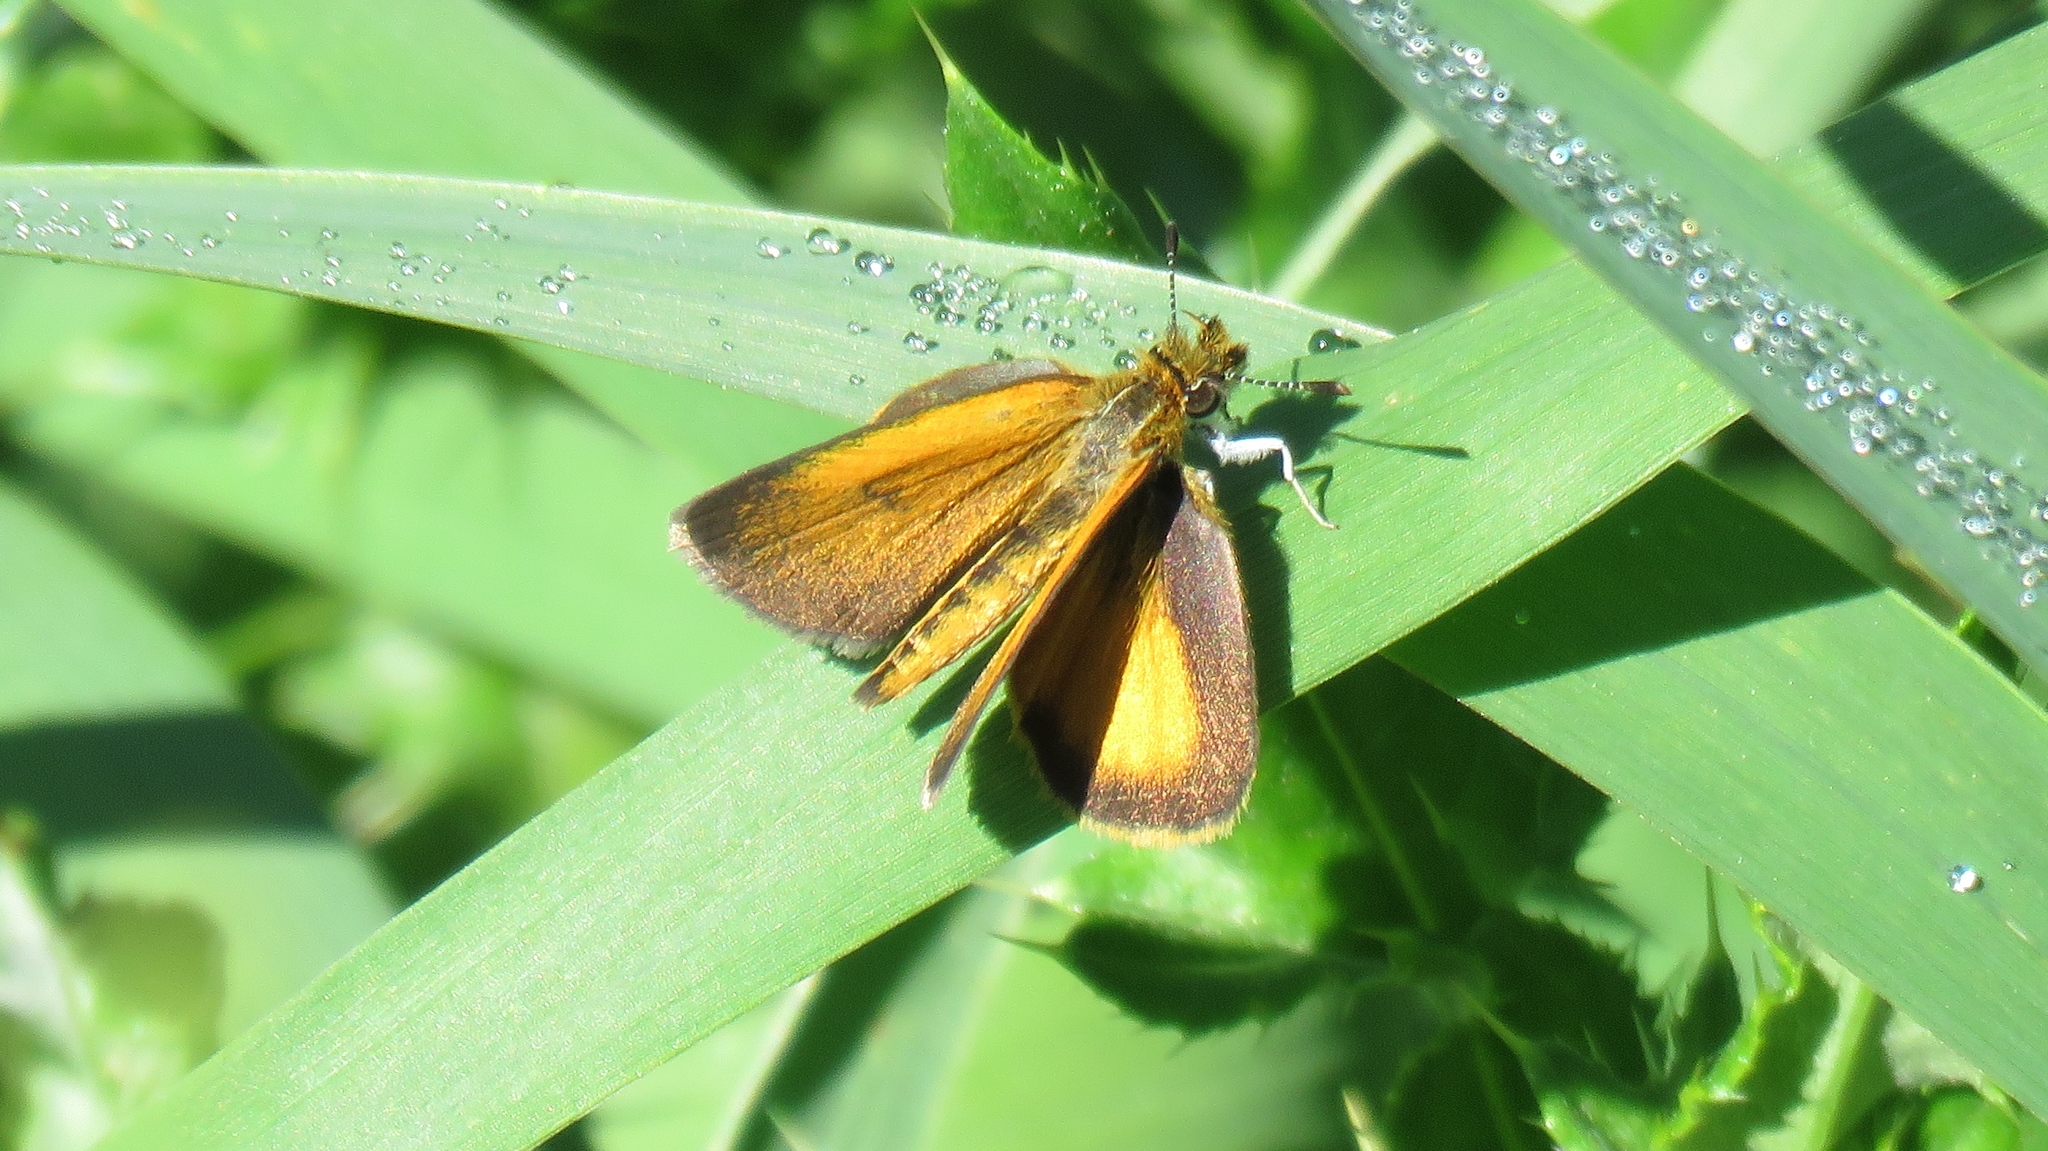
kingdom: Animalia
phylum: Arthropoda
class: Insecta
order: Lepidoptera
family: Hesperiidae
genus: Ancyloxypha
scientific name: Ancyloxypha numitor
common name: Least skipper
